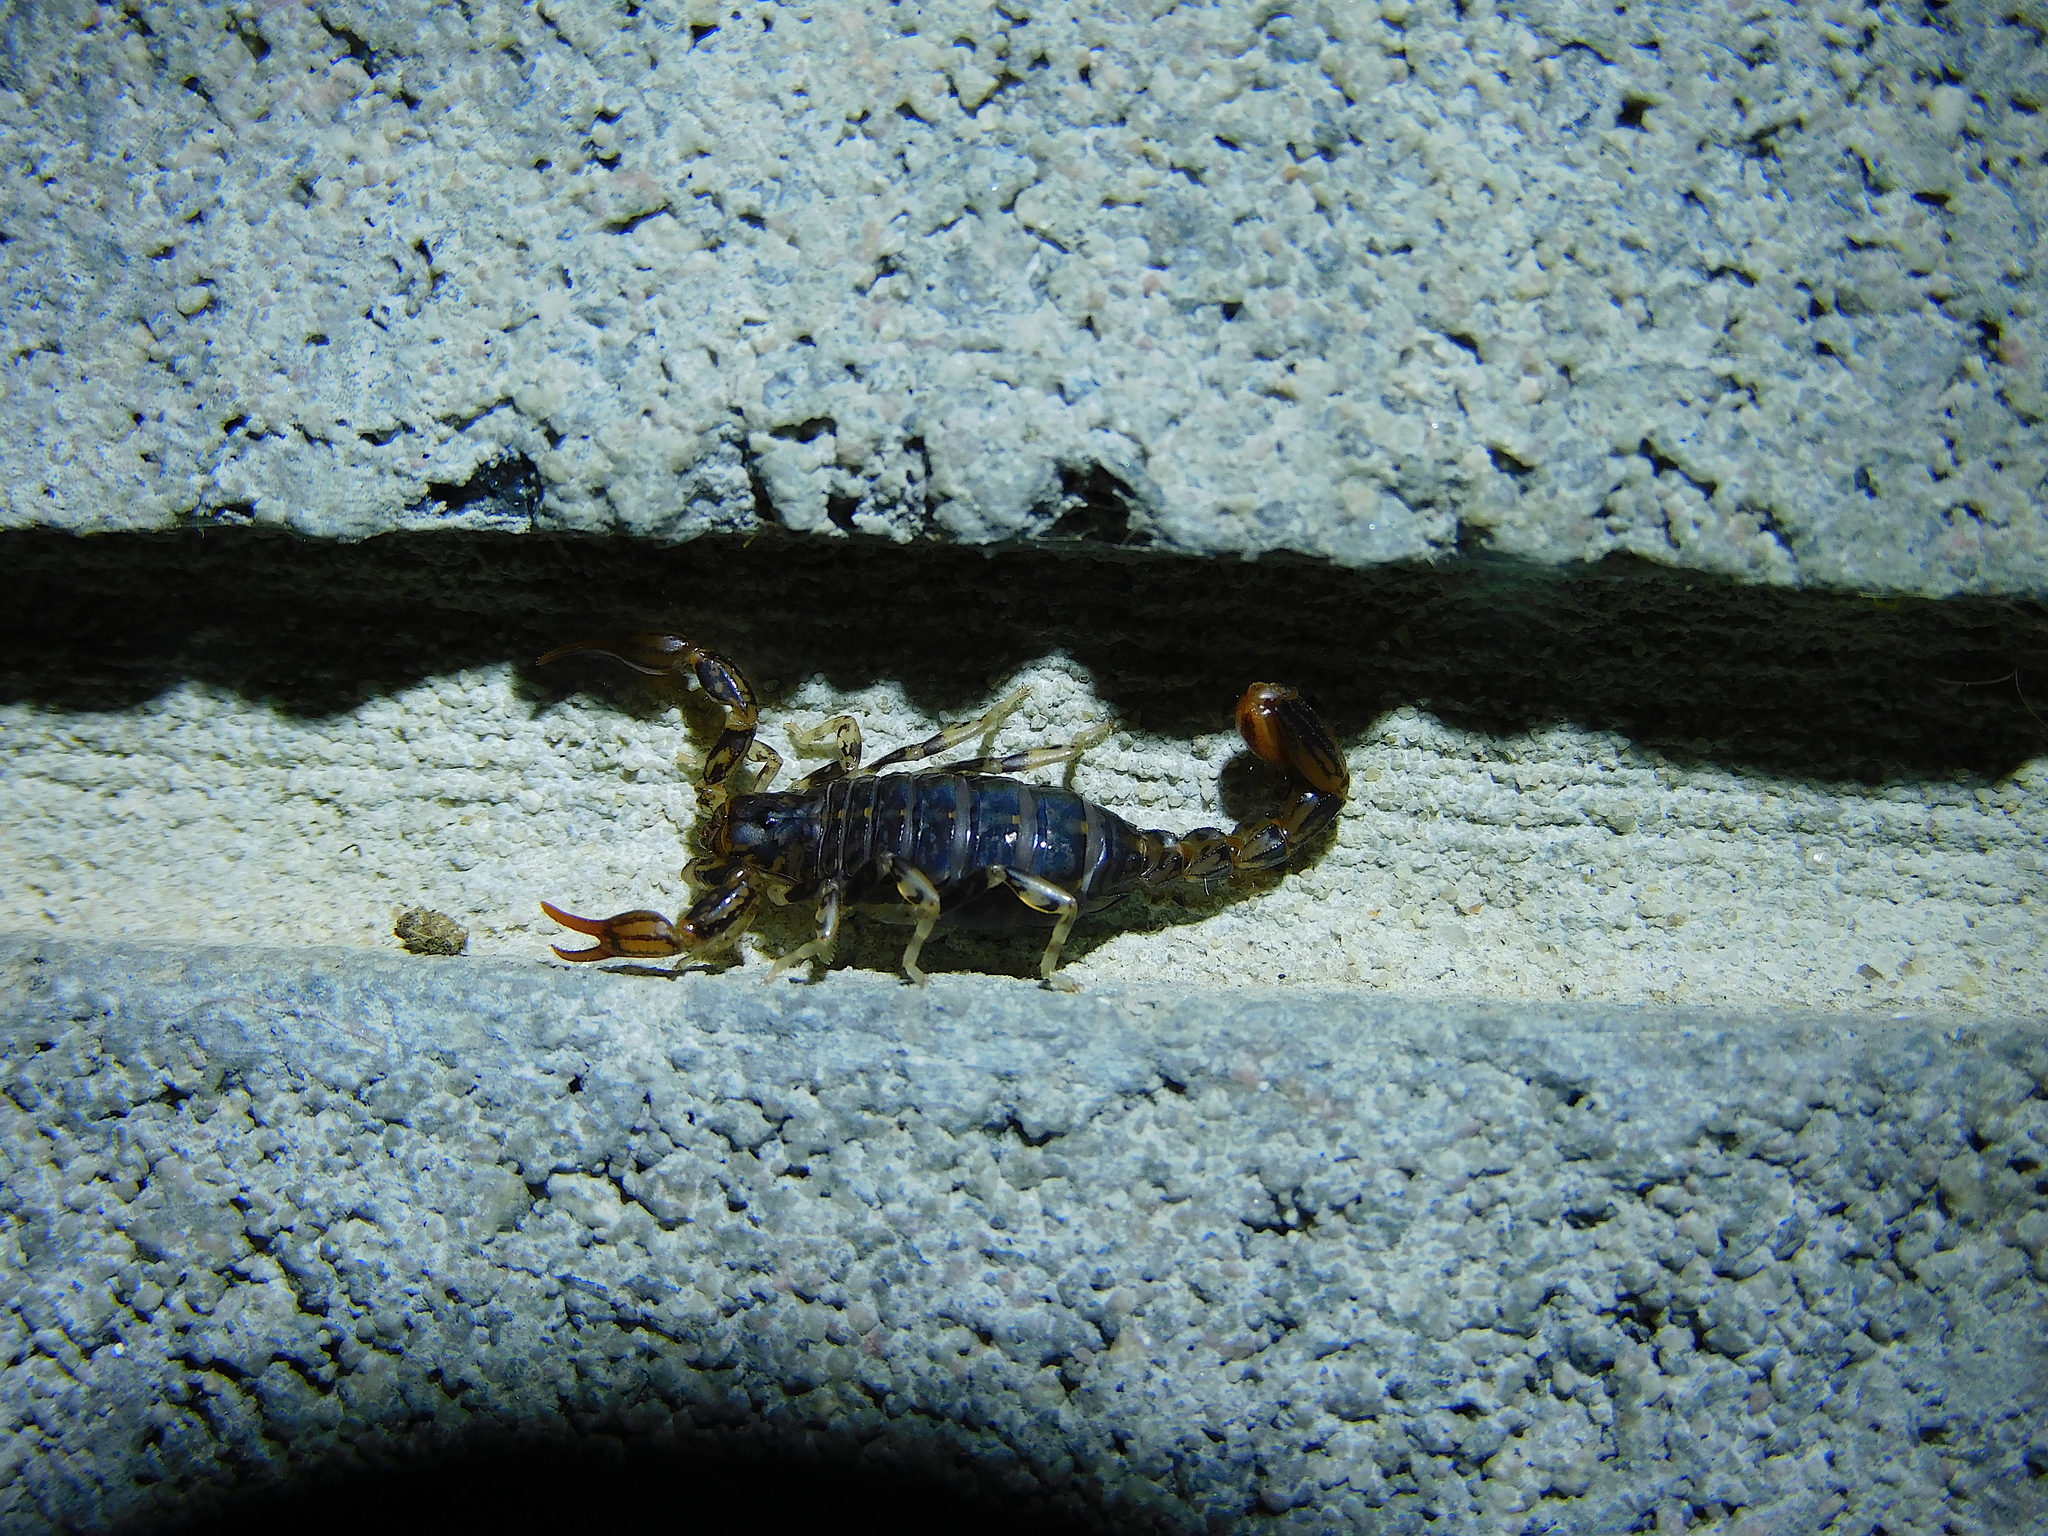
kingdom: Animalia
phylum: Arthropoda
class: Arachnida
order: Scorpiones
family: Bothriuridae
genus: Cercophonius
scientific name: Cercophonius squama
